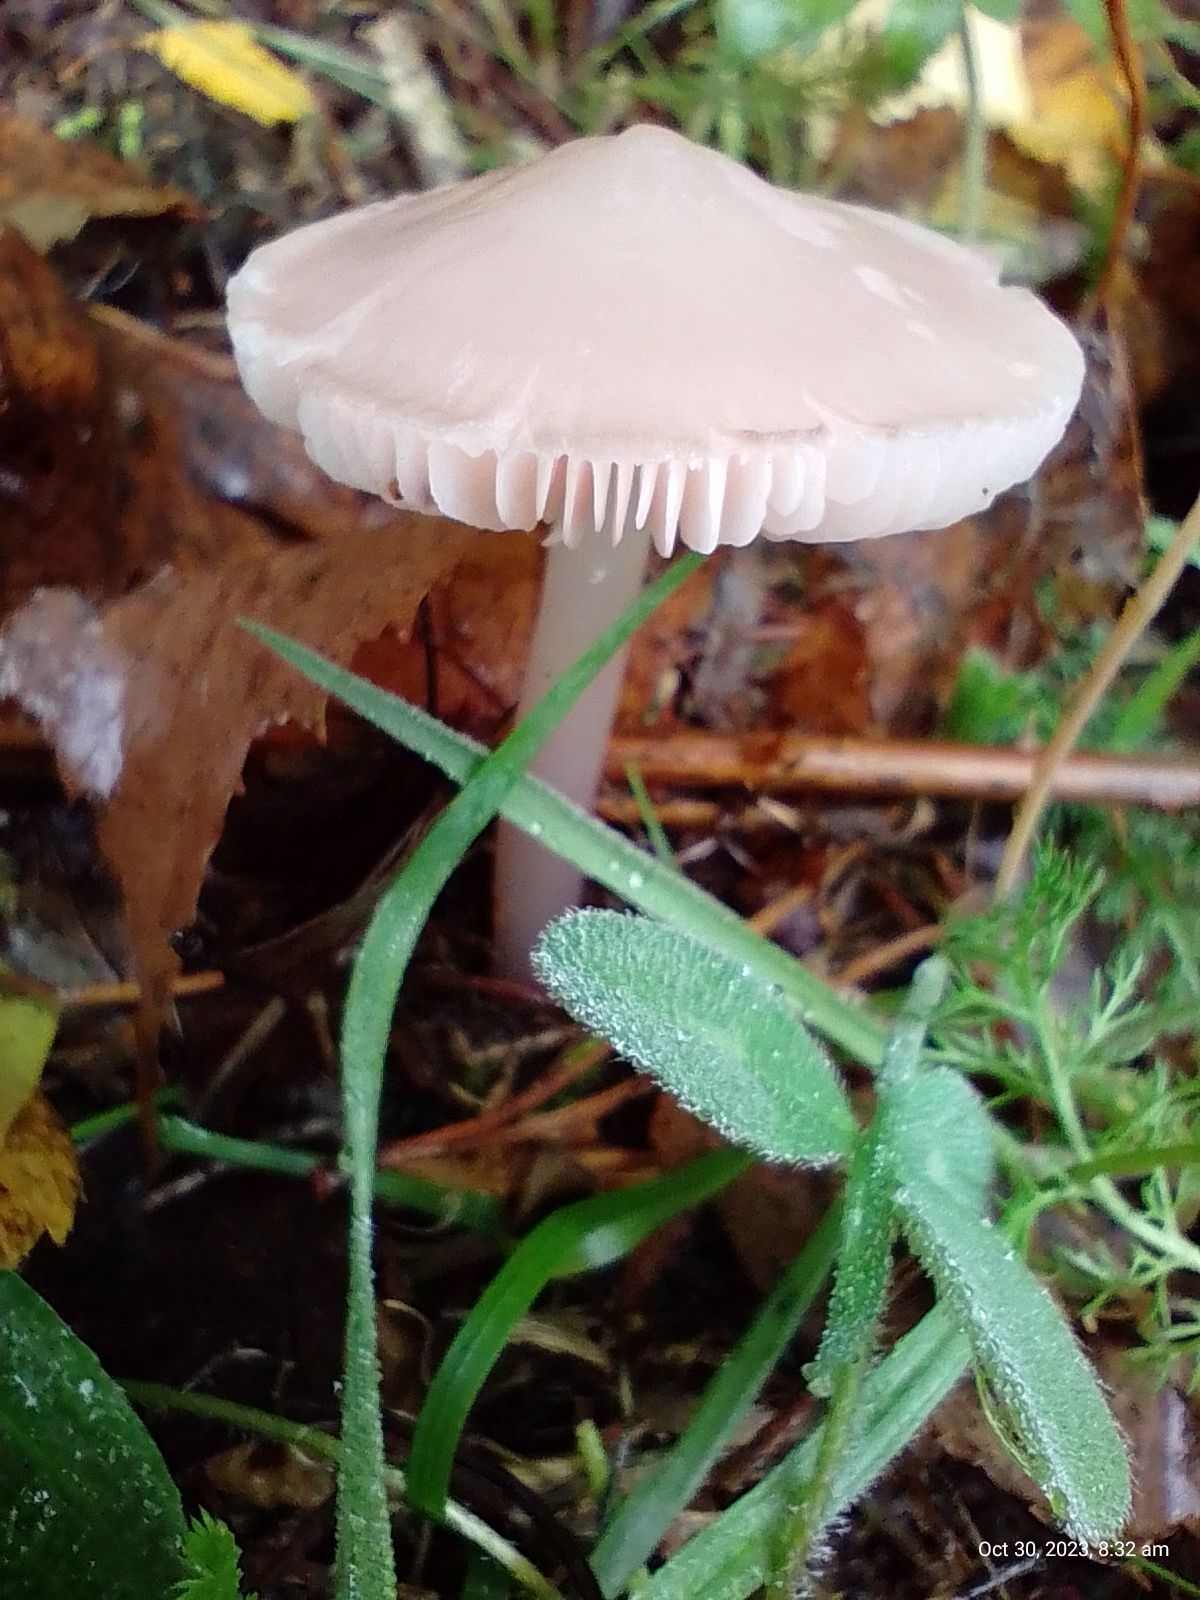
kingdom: Fungi
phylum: Basidiomycota
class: Agaricomycetes
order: Agaricales
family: Mycenaceae
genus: Mycena
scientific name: Mycena rosea
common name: Rosy bonnet
